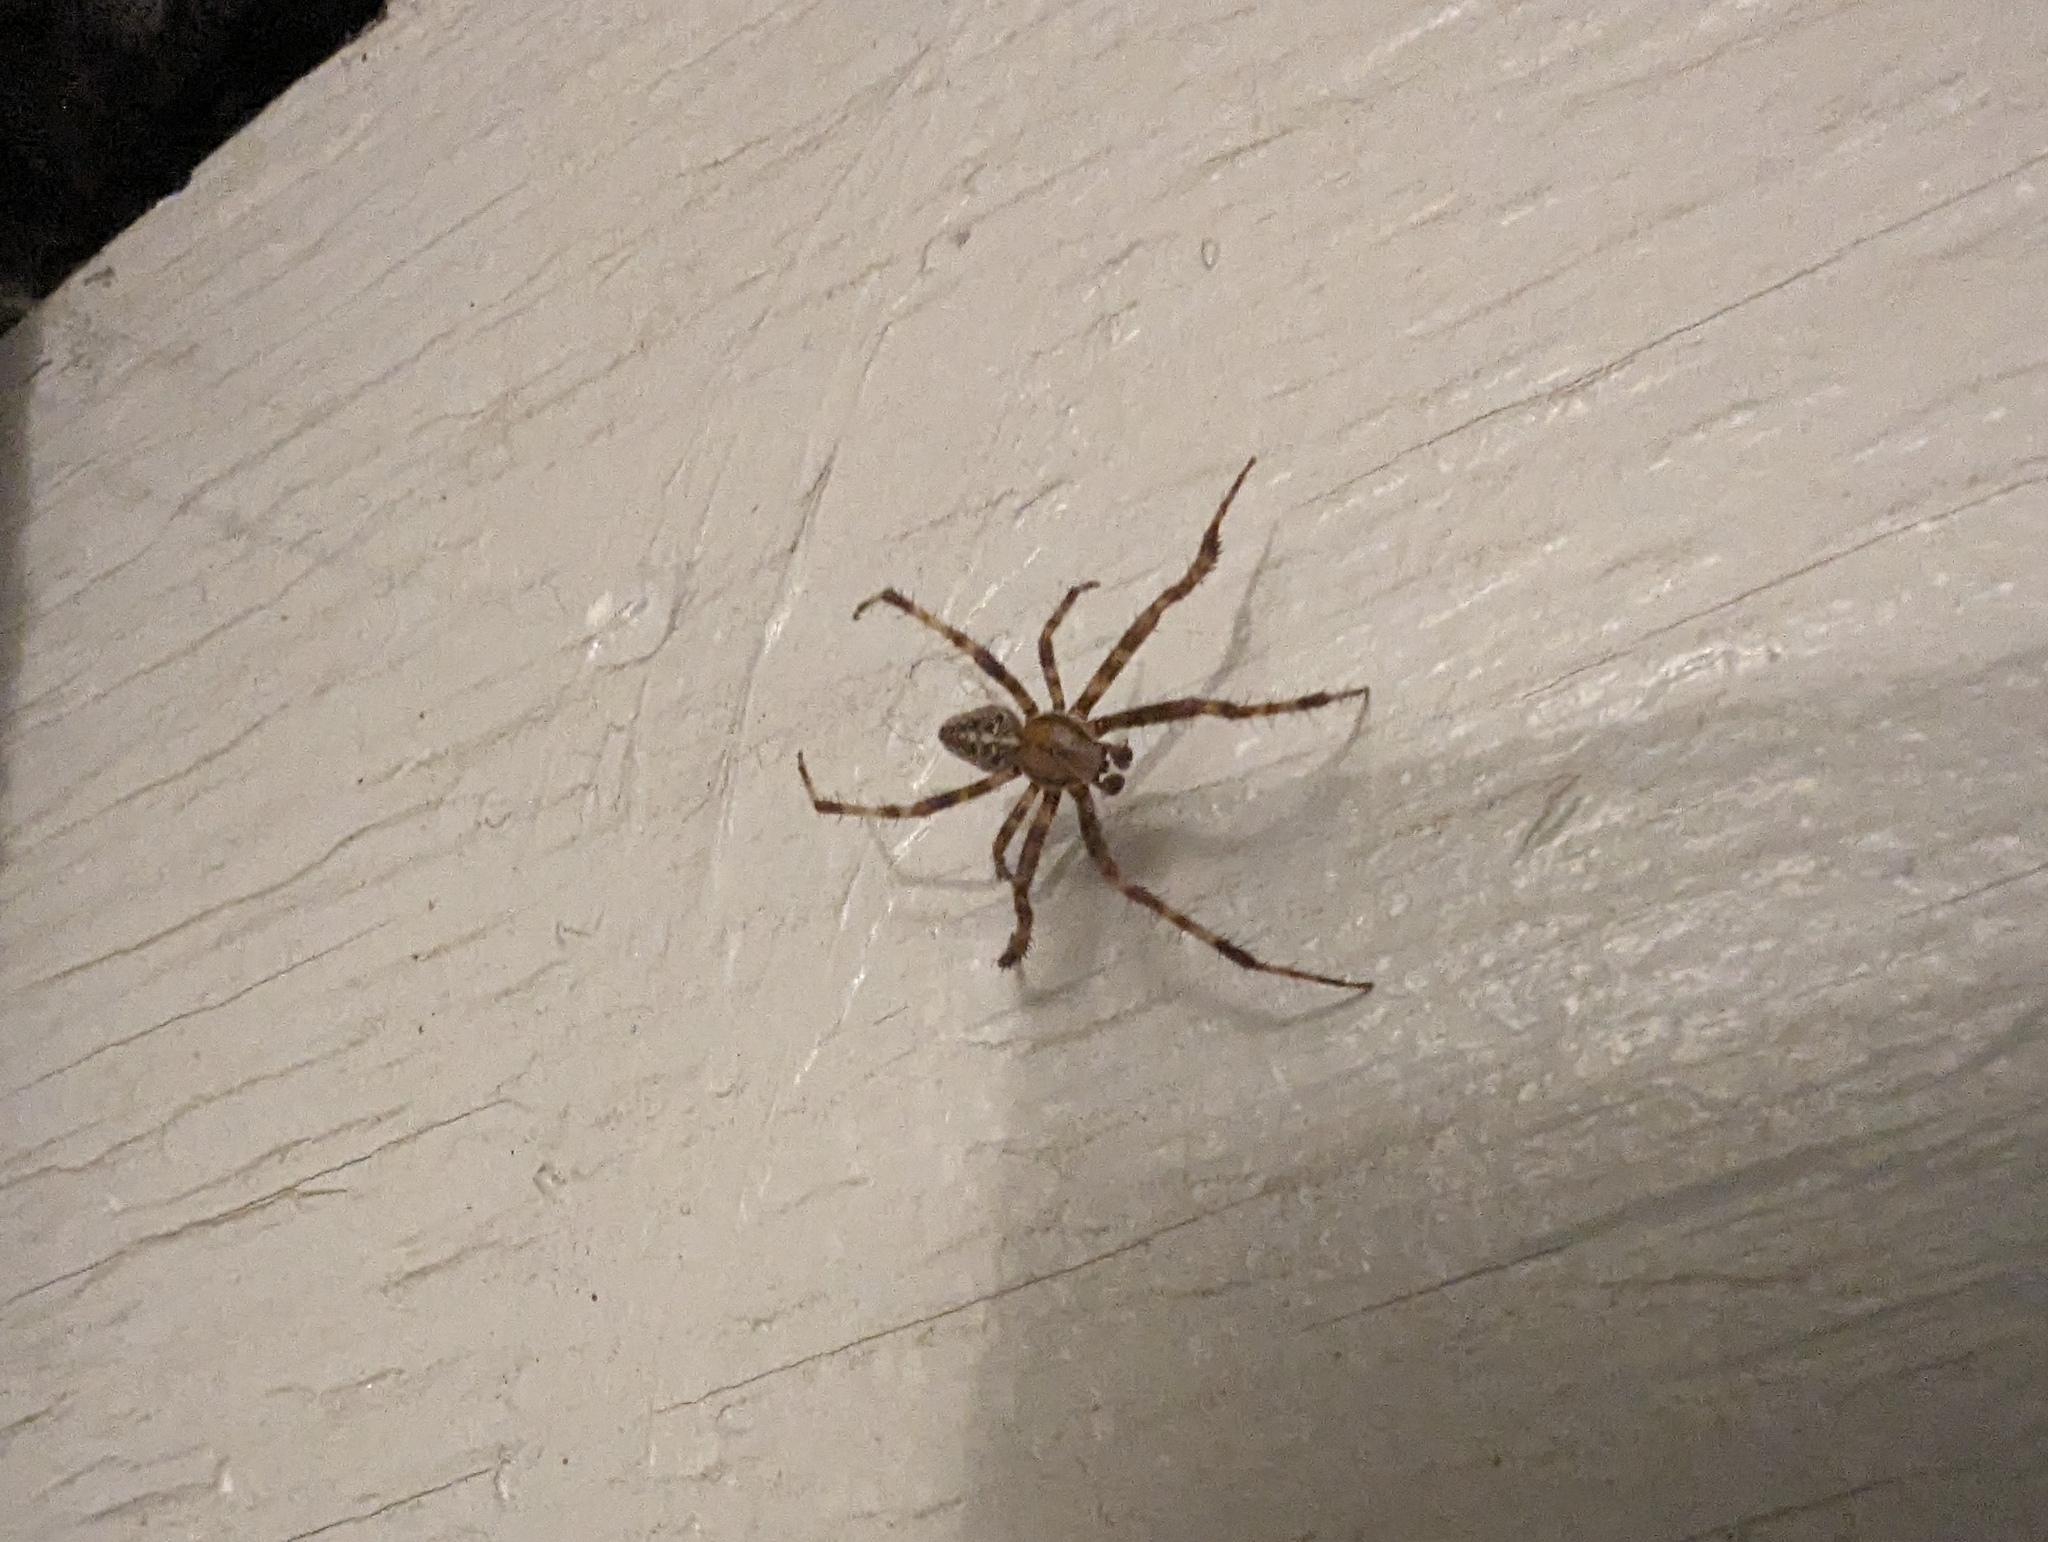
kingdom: Animalia
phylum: Arthropoda
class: Arachnida
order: Araneae
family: Araneidae
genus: Araneus
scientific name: Araneus diadematus
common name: Cross orbweaver
